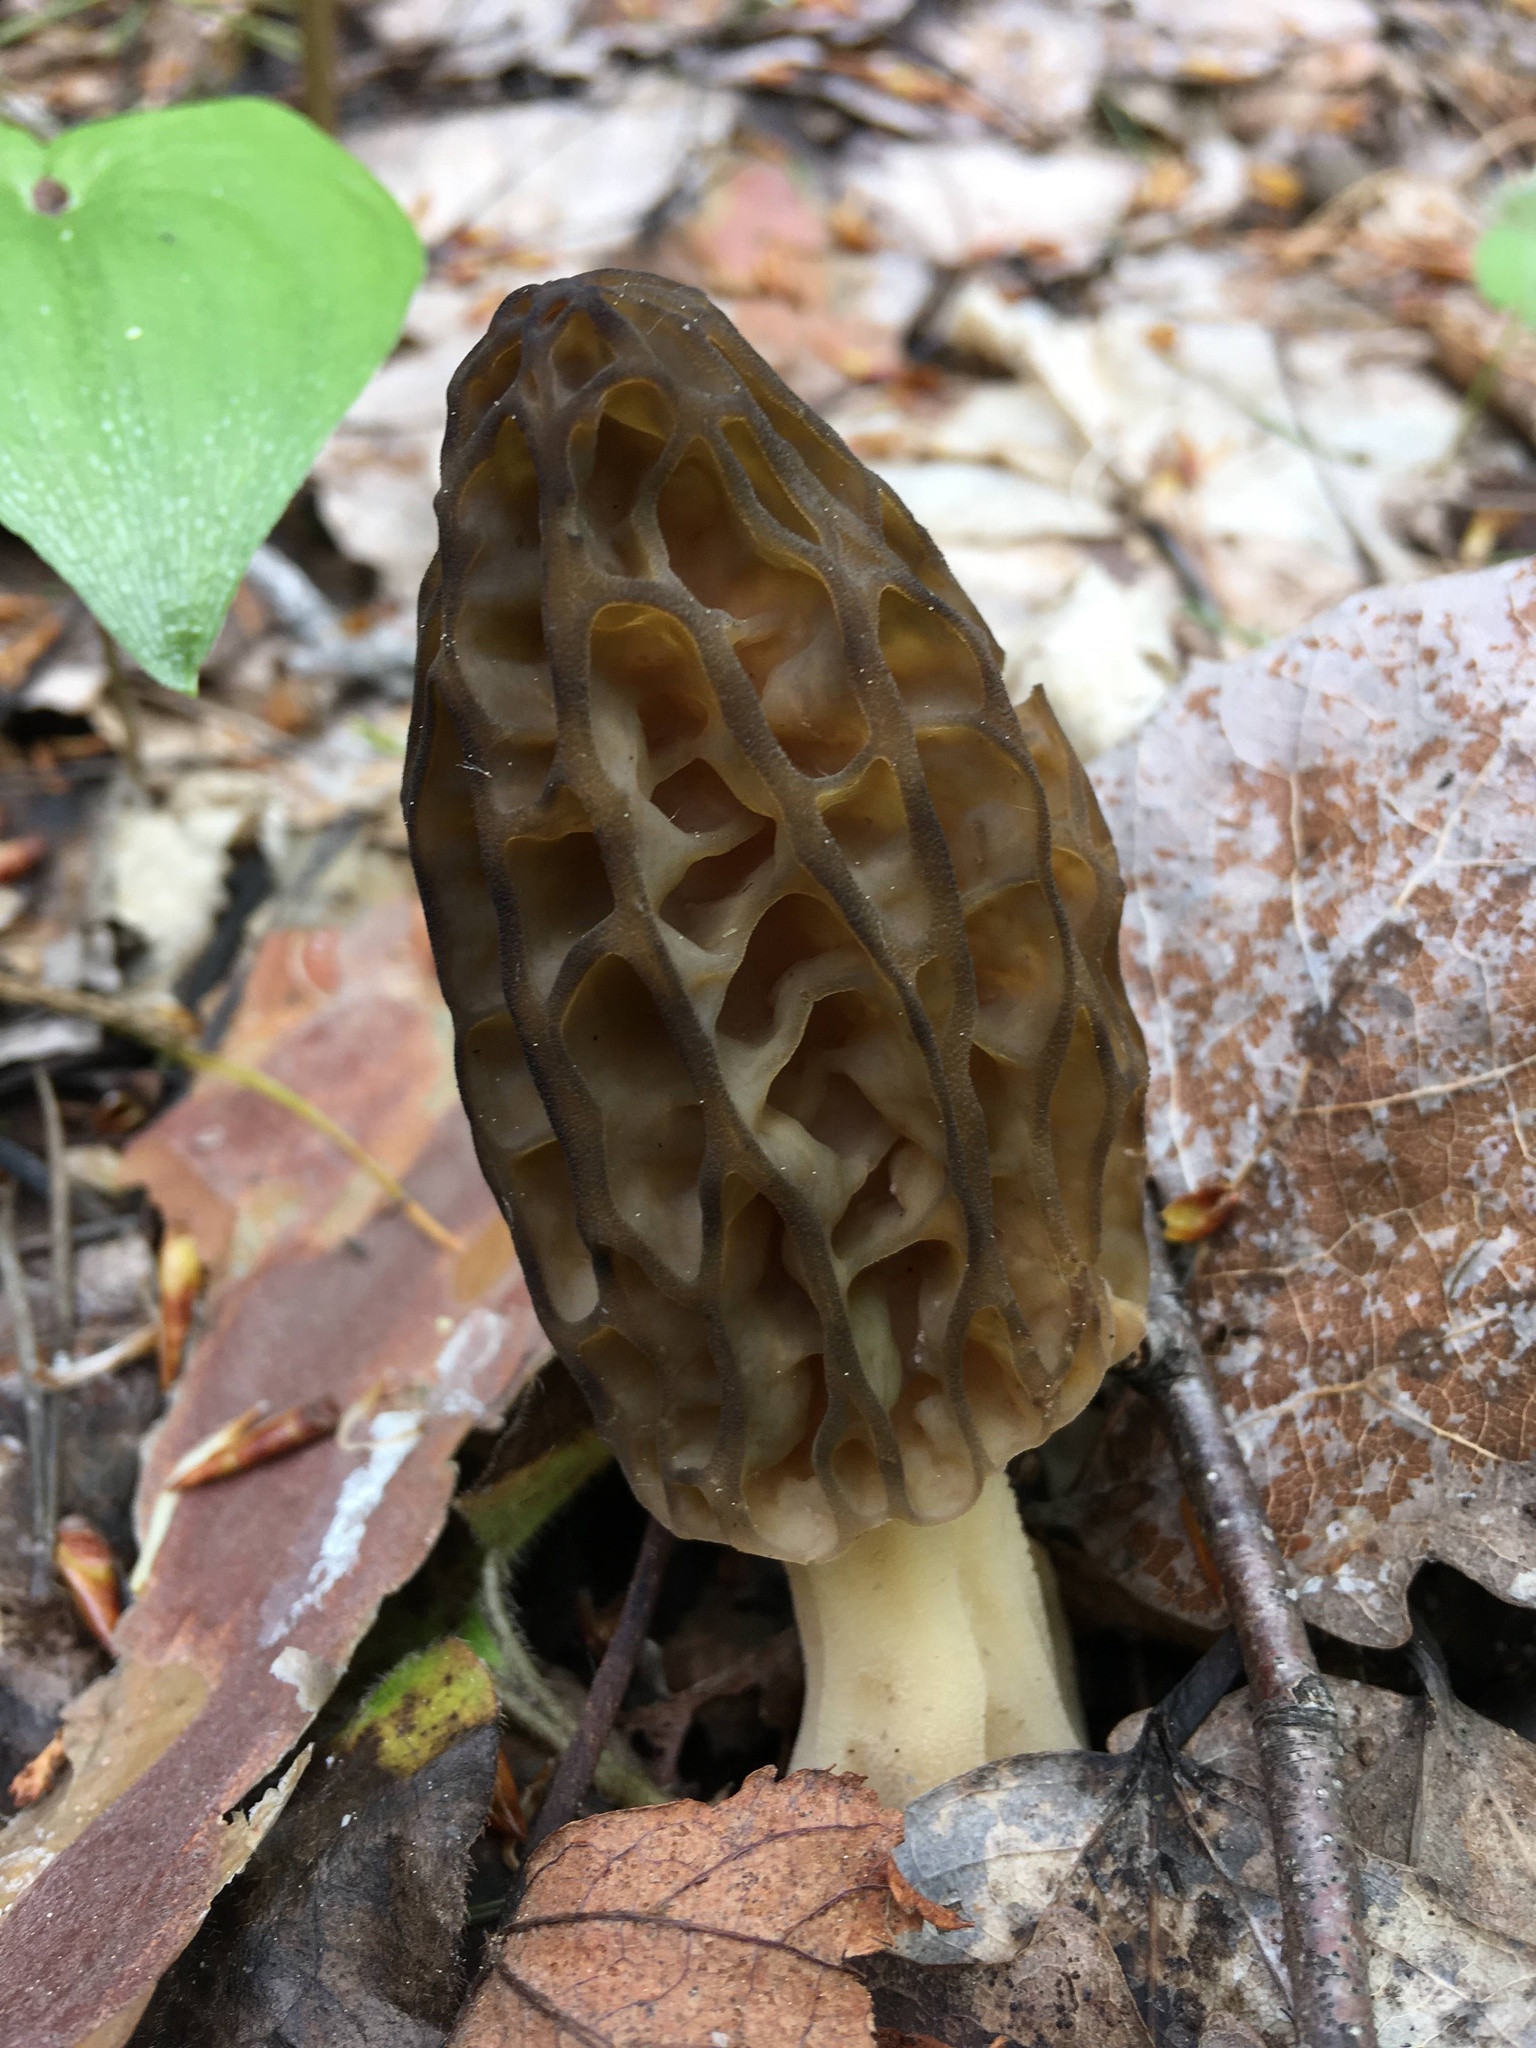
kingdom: Fungi
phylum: Ascomycota
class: Pezizomycetes
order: Pezizales
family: Morchellaceae
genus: Morchella
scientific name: Morchella
